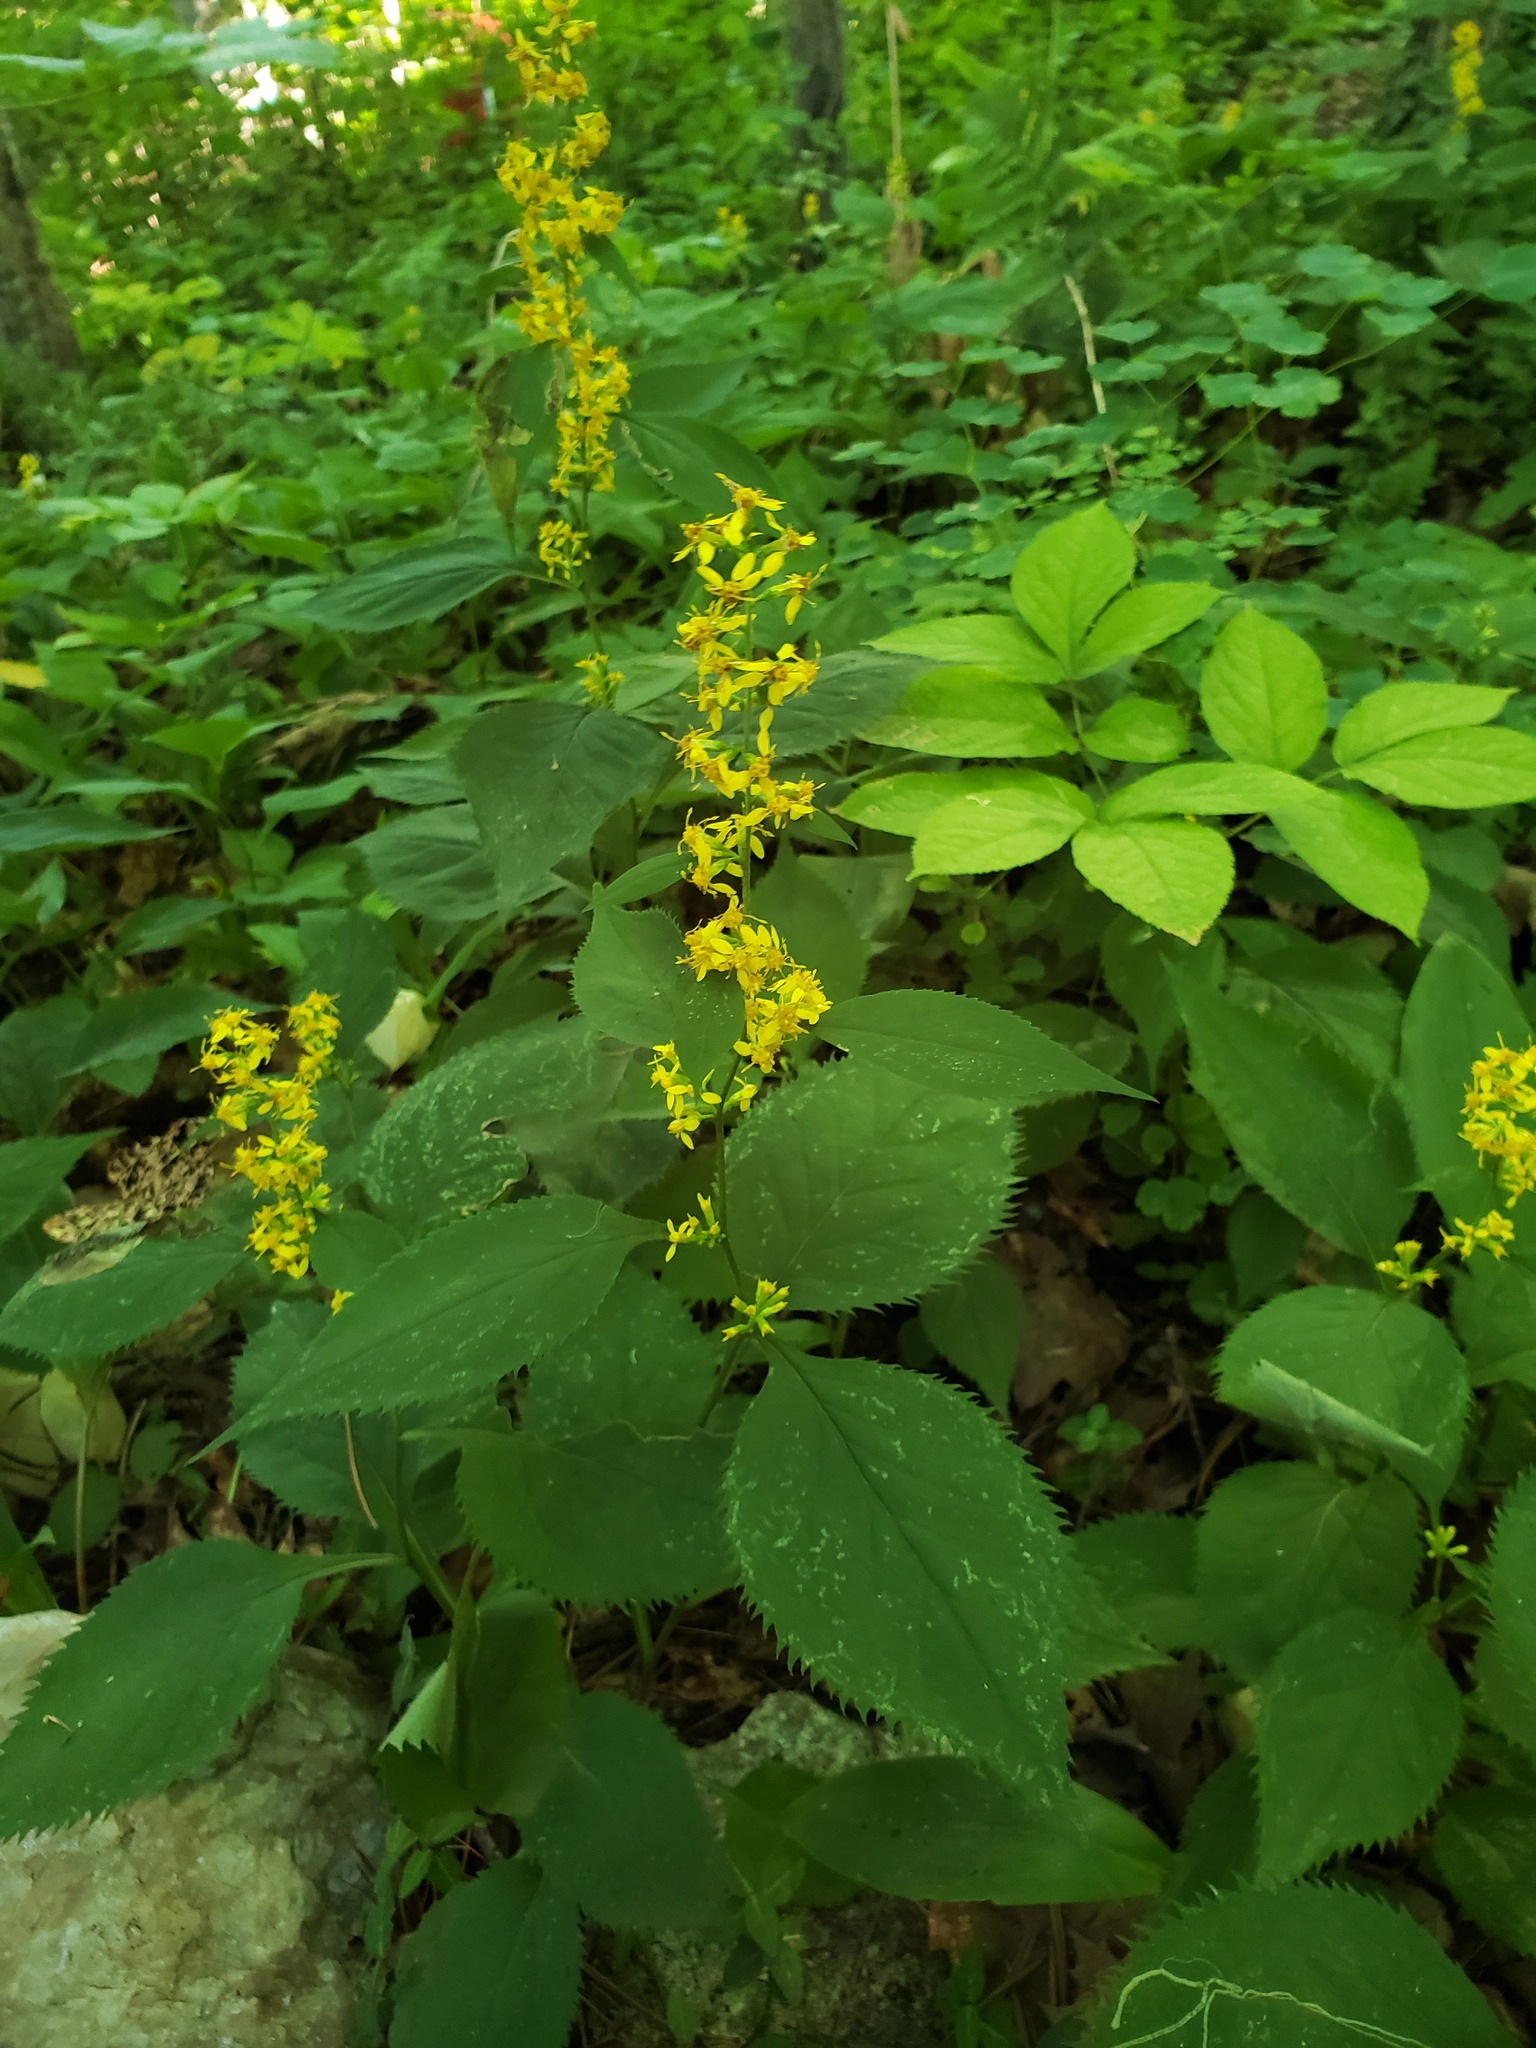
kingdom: Plantae
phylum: Tracheophyta
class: Magnoliopsida
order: Asterales
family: Asteraceae
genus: Solidago
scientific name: Solidago flexicaulis
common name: Zig-zag goldenrod
